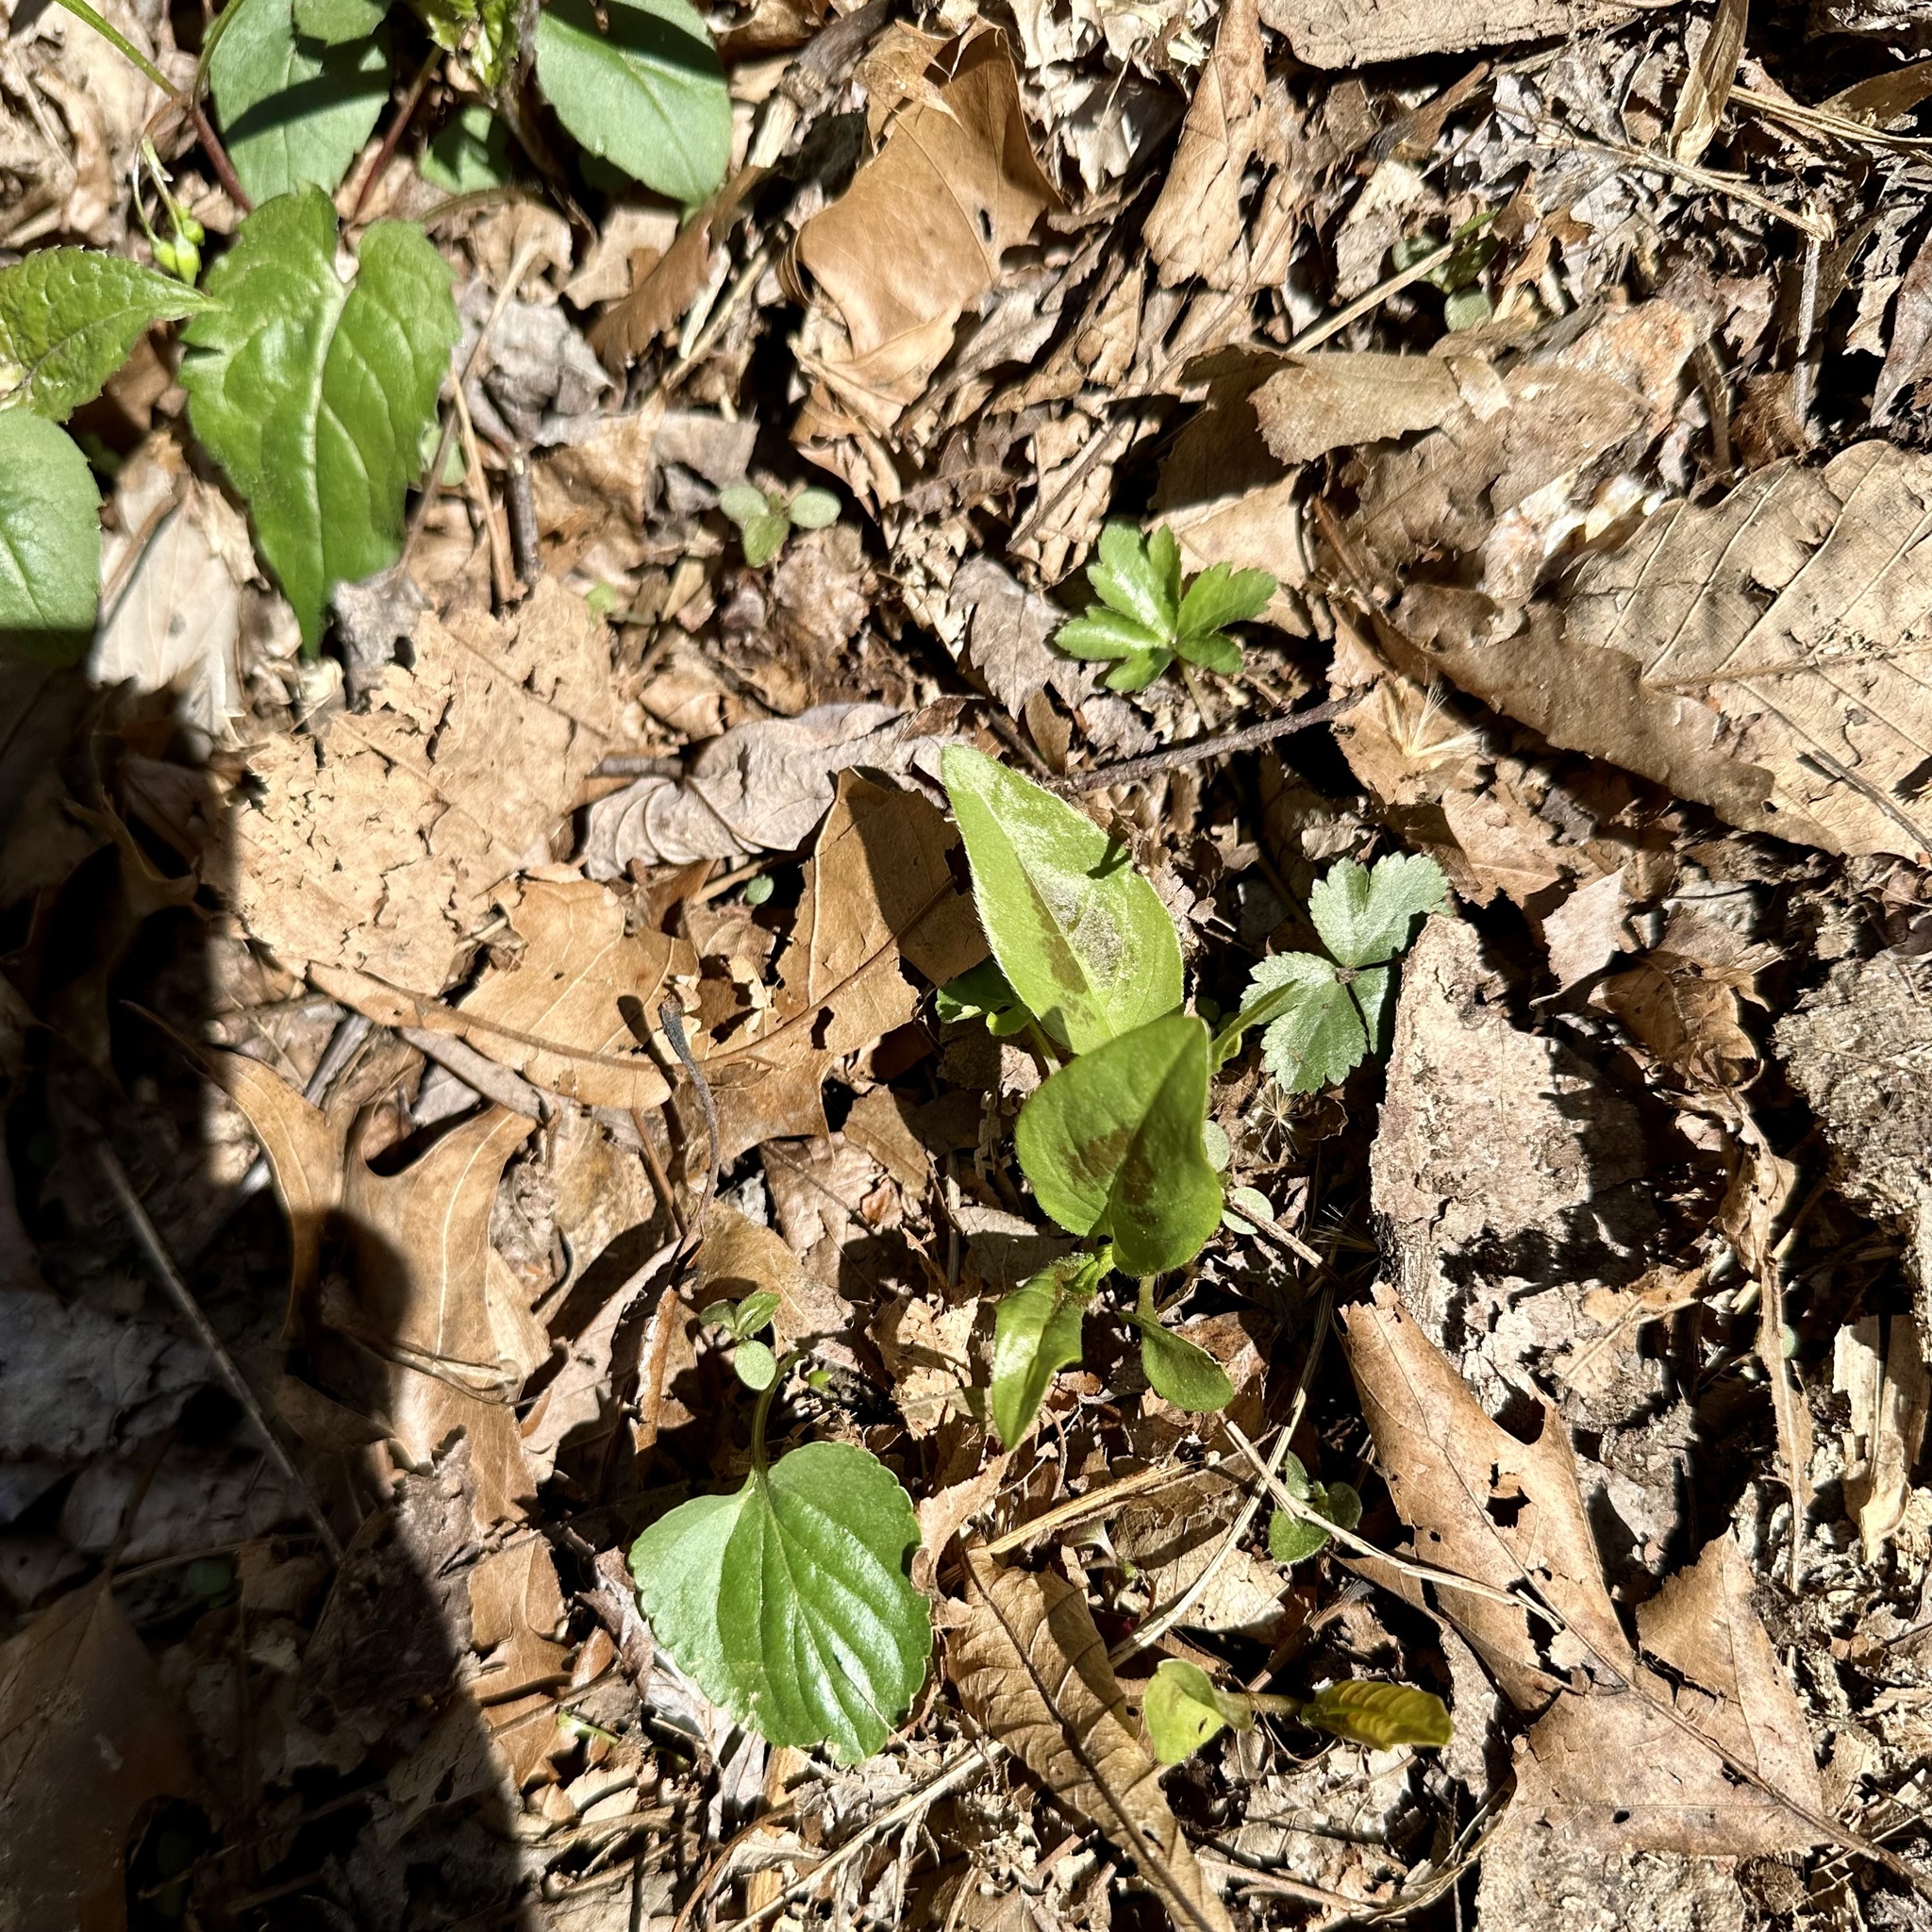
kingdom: Plantae
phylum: Tracheophyta
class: Magnoliopsida
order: Caryophyllales
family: Polygonaceae
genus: Persicaria
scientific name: Persicaria virginiana
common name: Jumpseed
